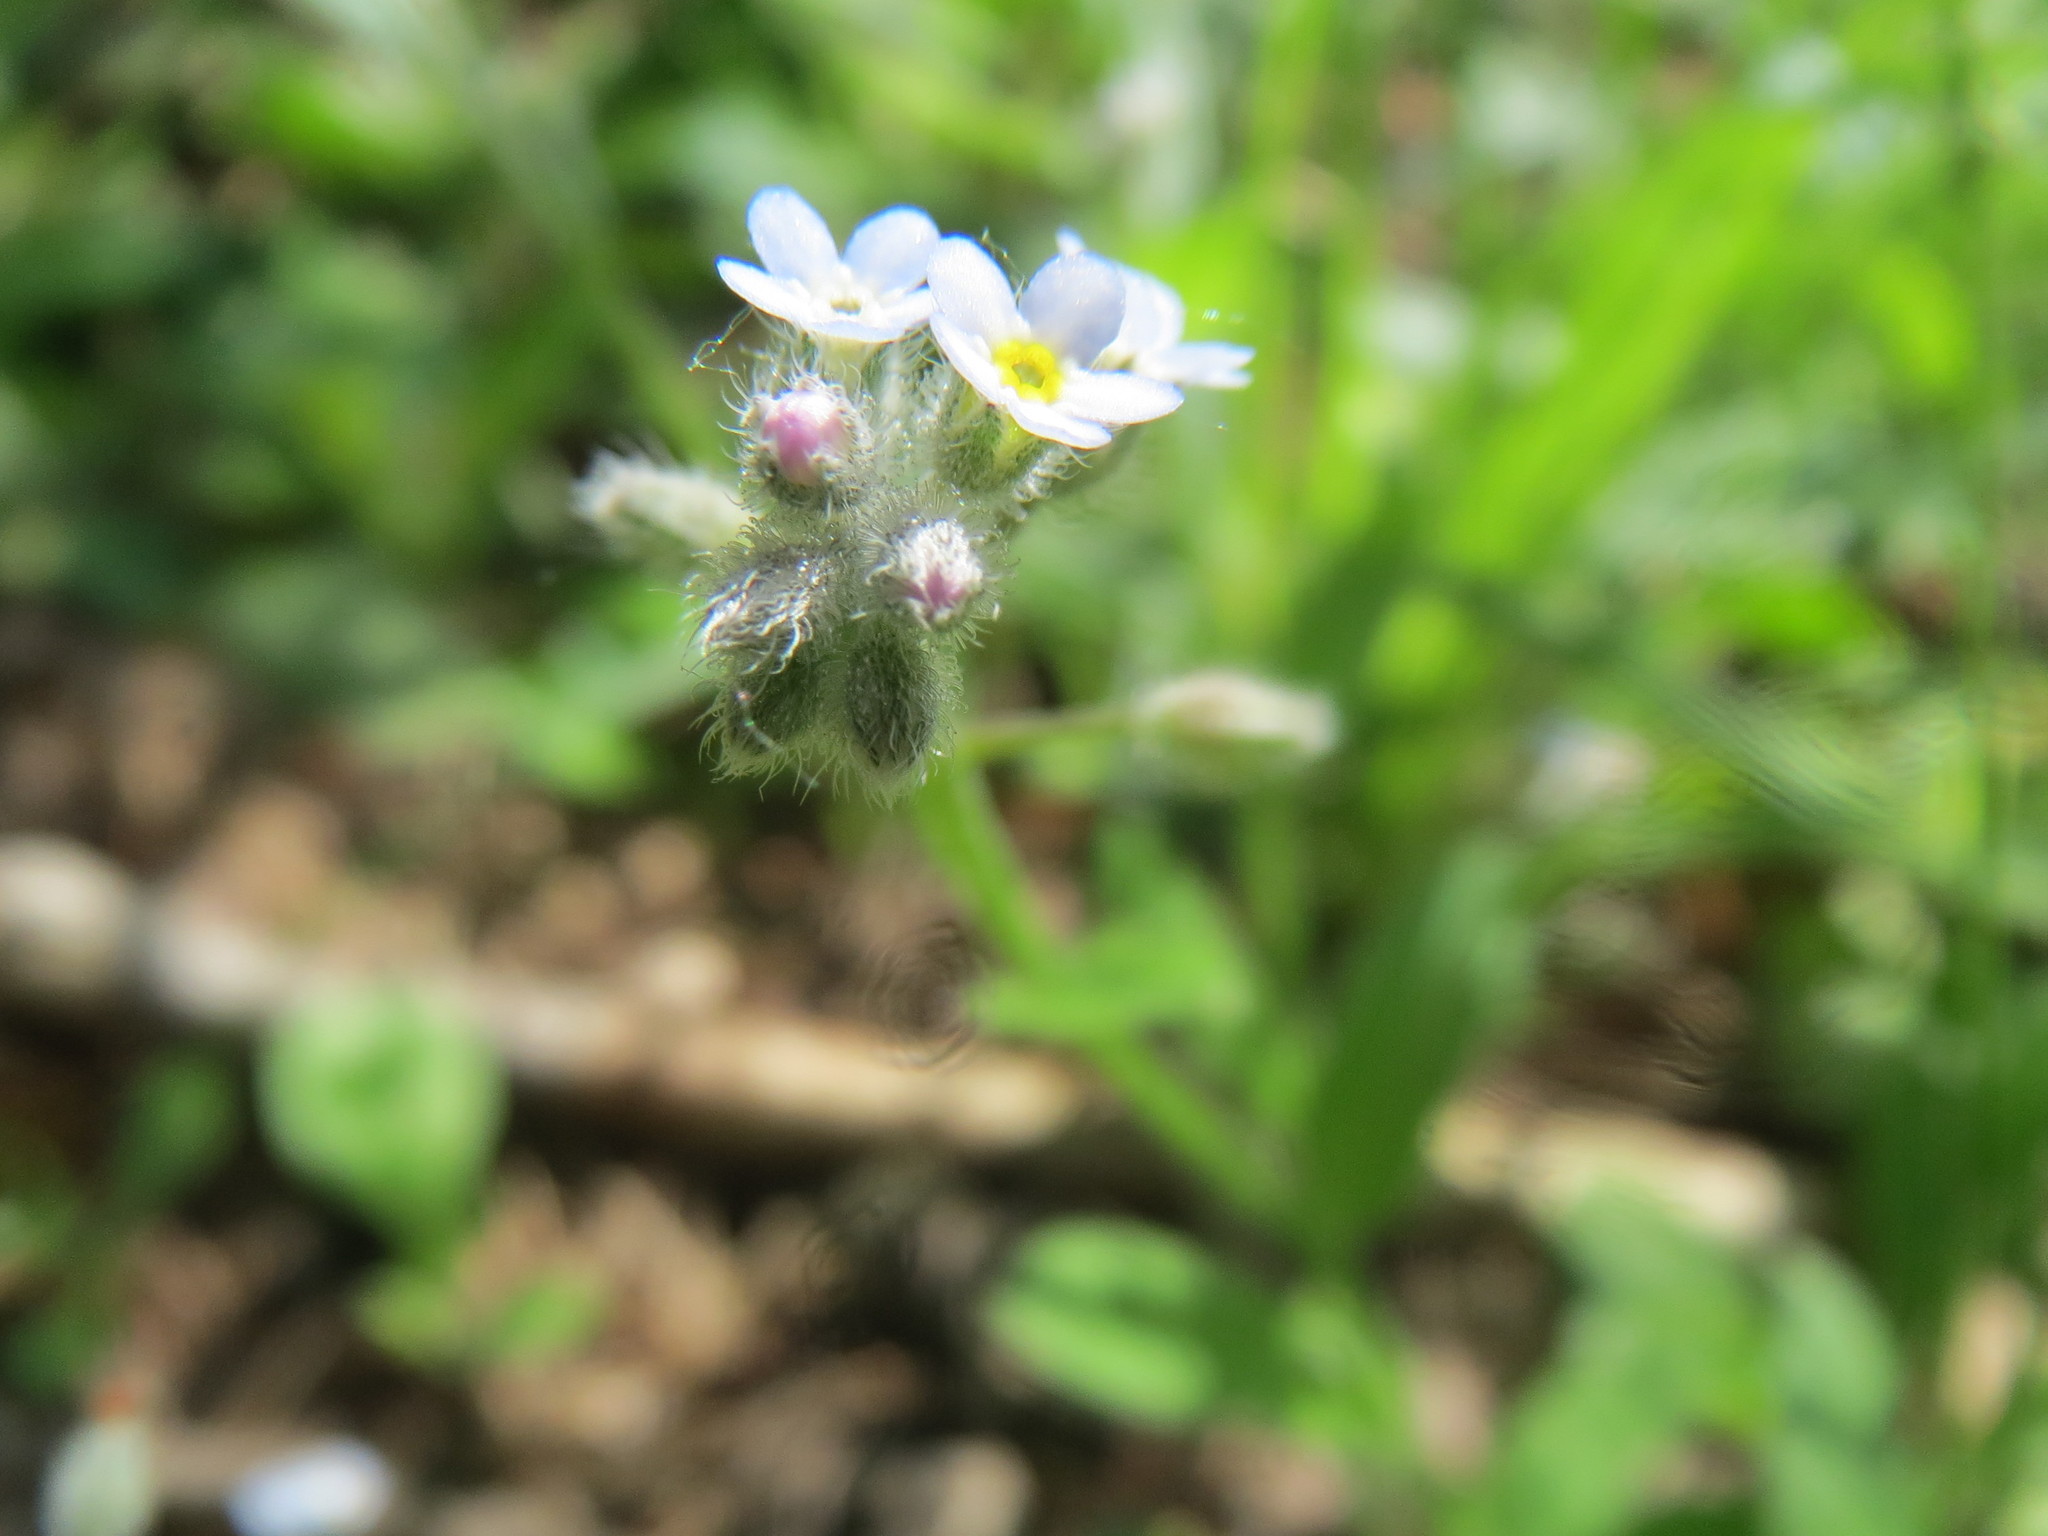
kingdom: Plantae
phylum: Tracheophyta
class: Magnoliopsida
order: Boraginales
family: Boraginaceae
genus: Myosotis
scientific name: Myosotis arvensis
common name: Field forget-me-not
